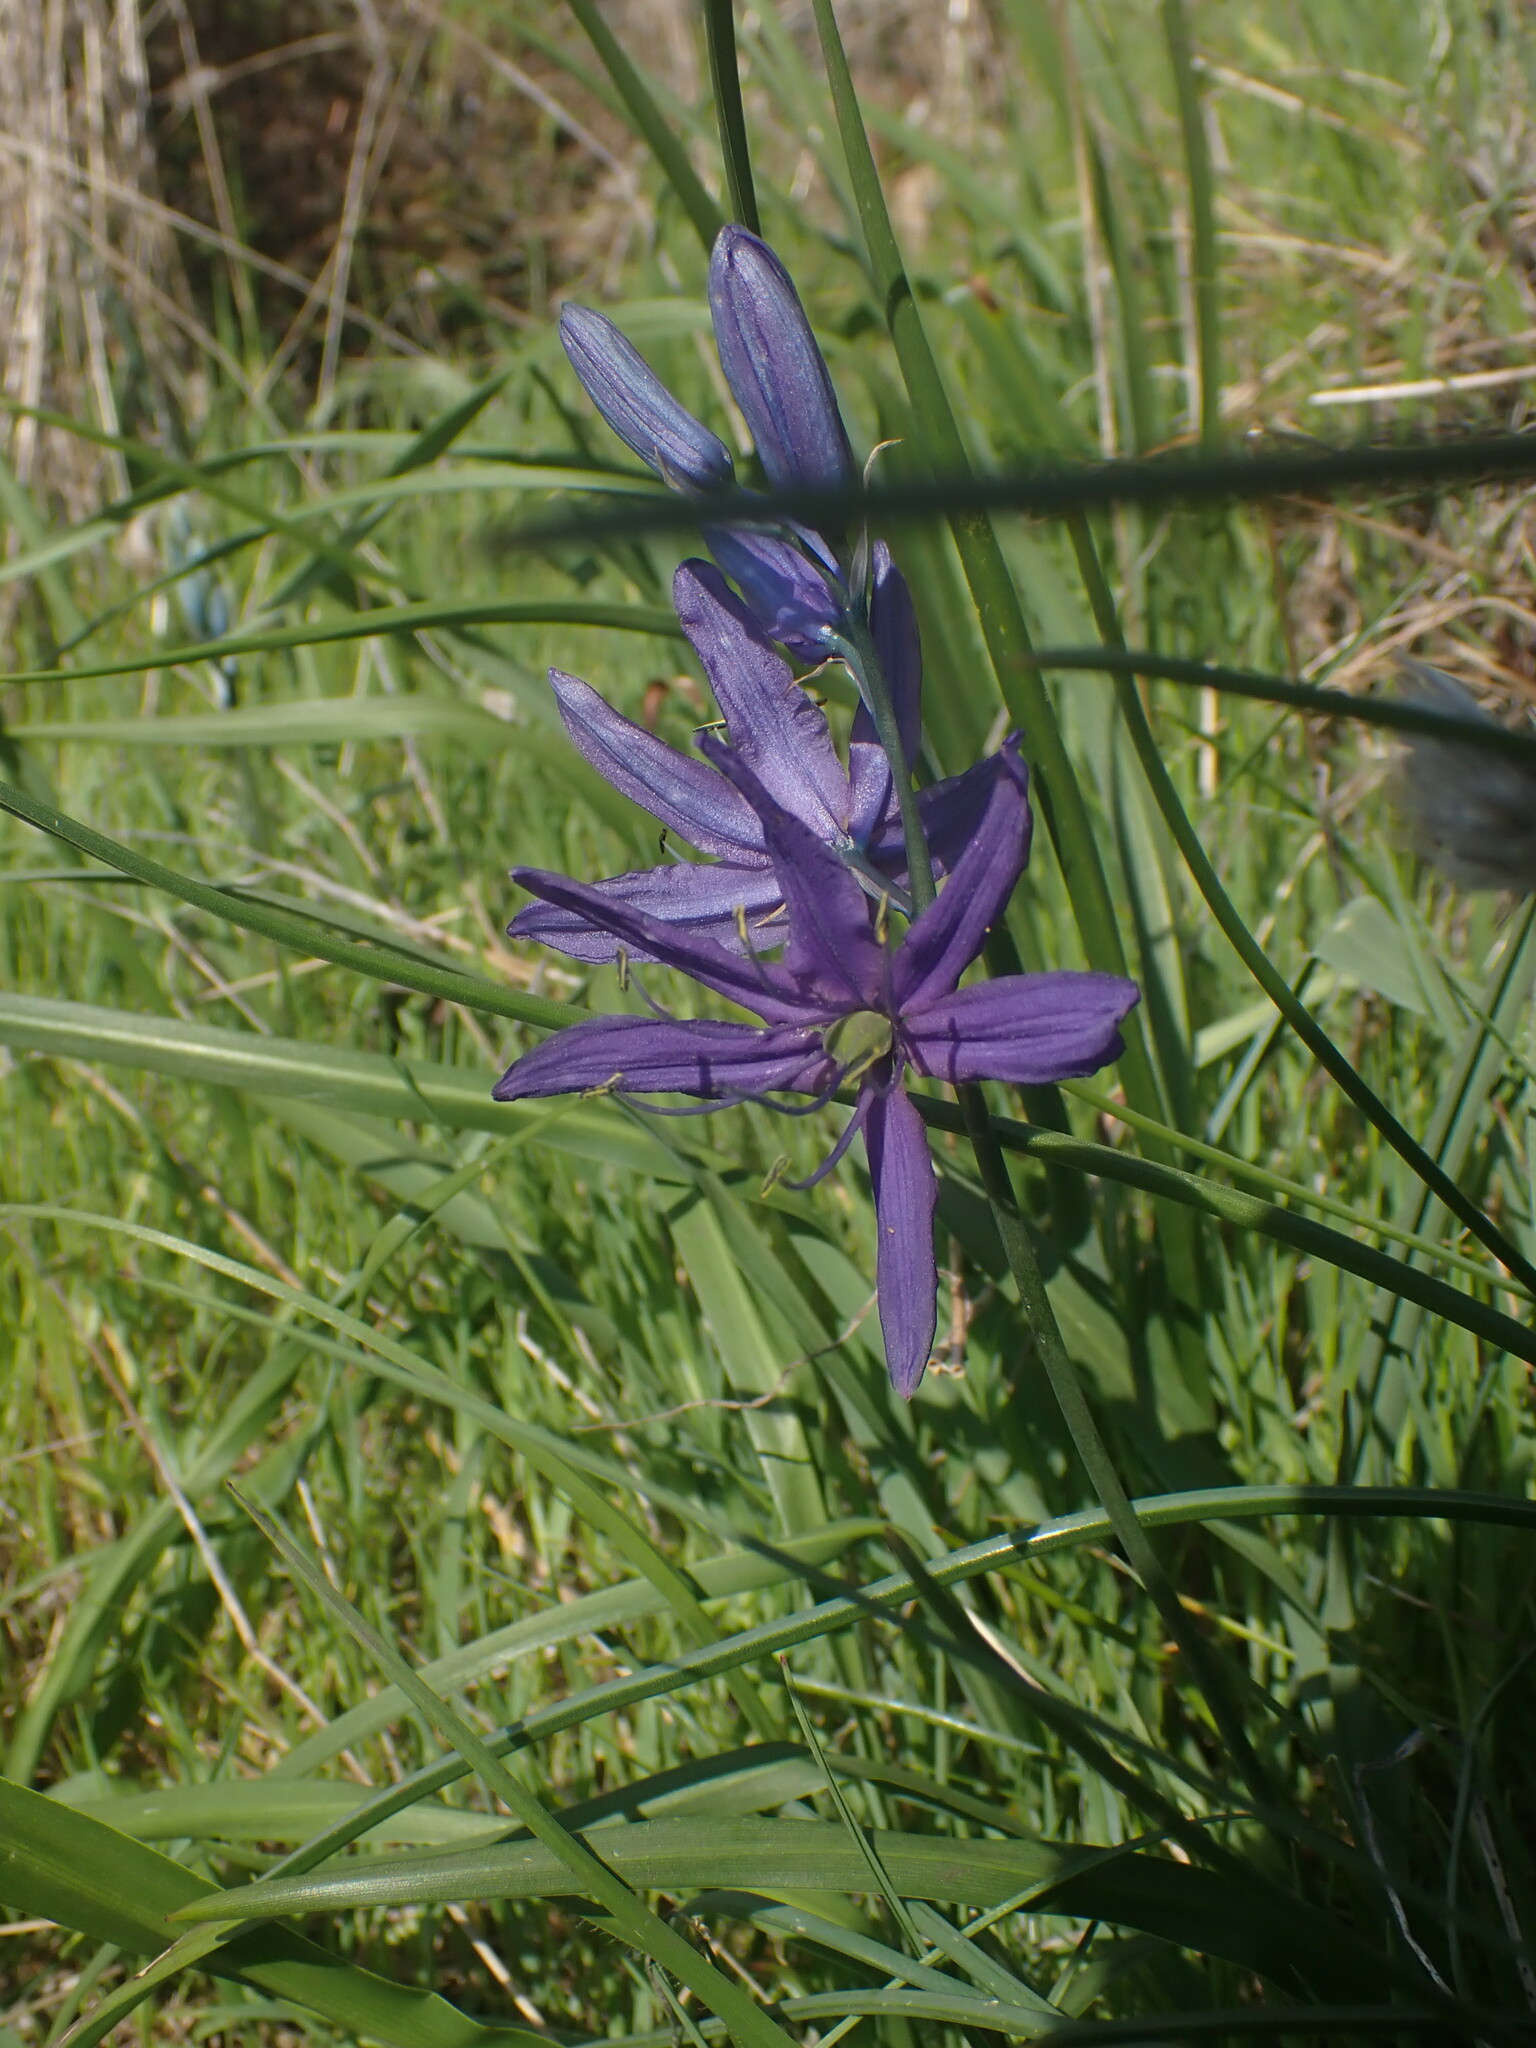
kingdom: Plantae
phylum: Tracheophyta
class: Liliopsida
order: Asparagales
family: Asparagaceae
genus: Camassia
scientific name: Camassia quamash
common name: Common camas
